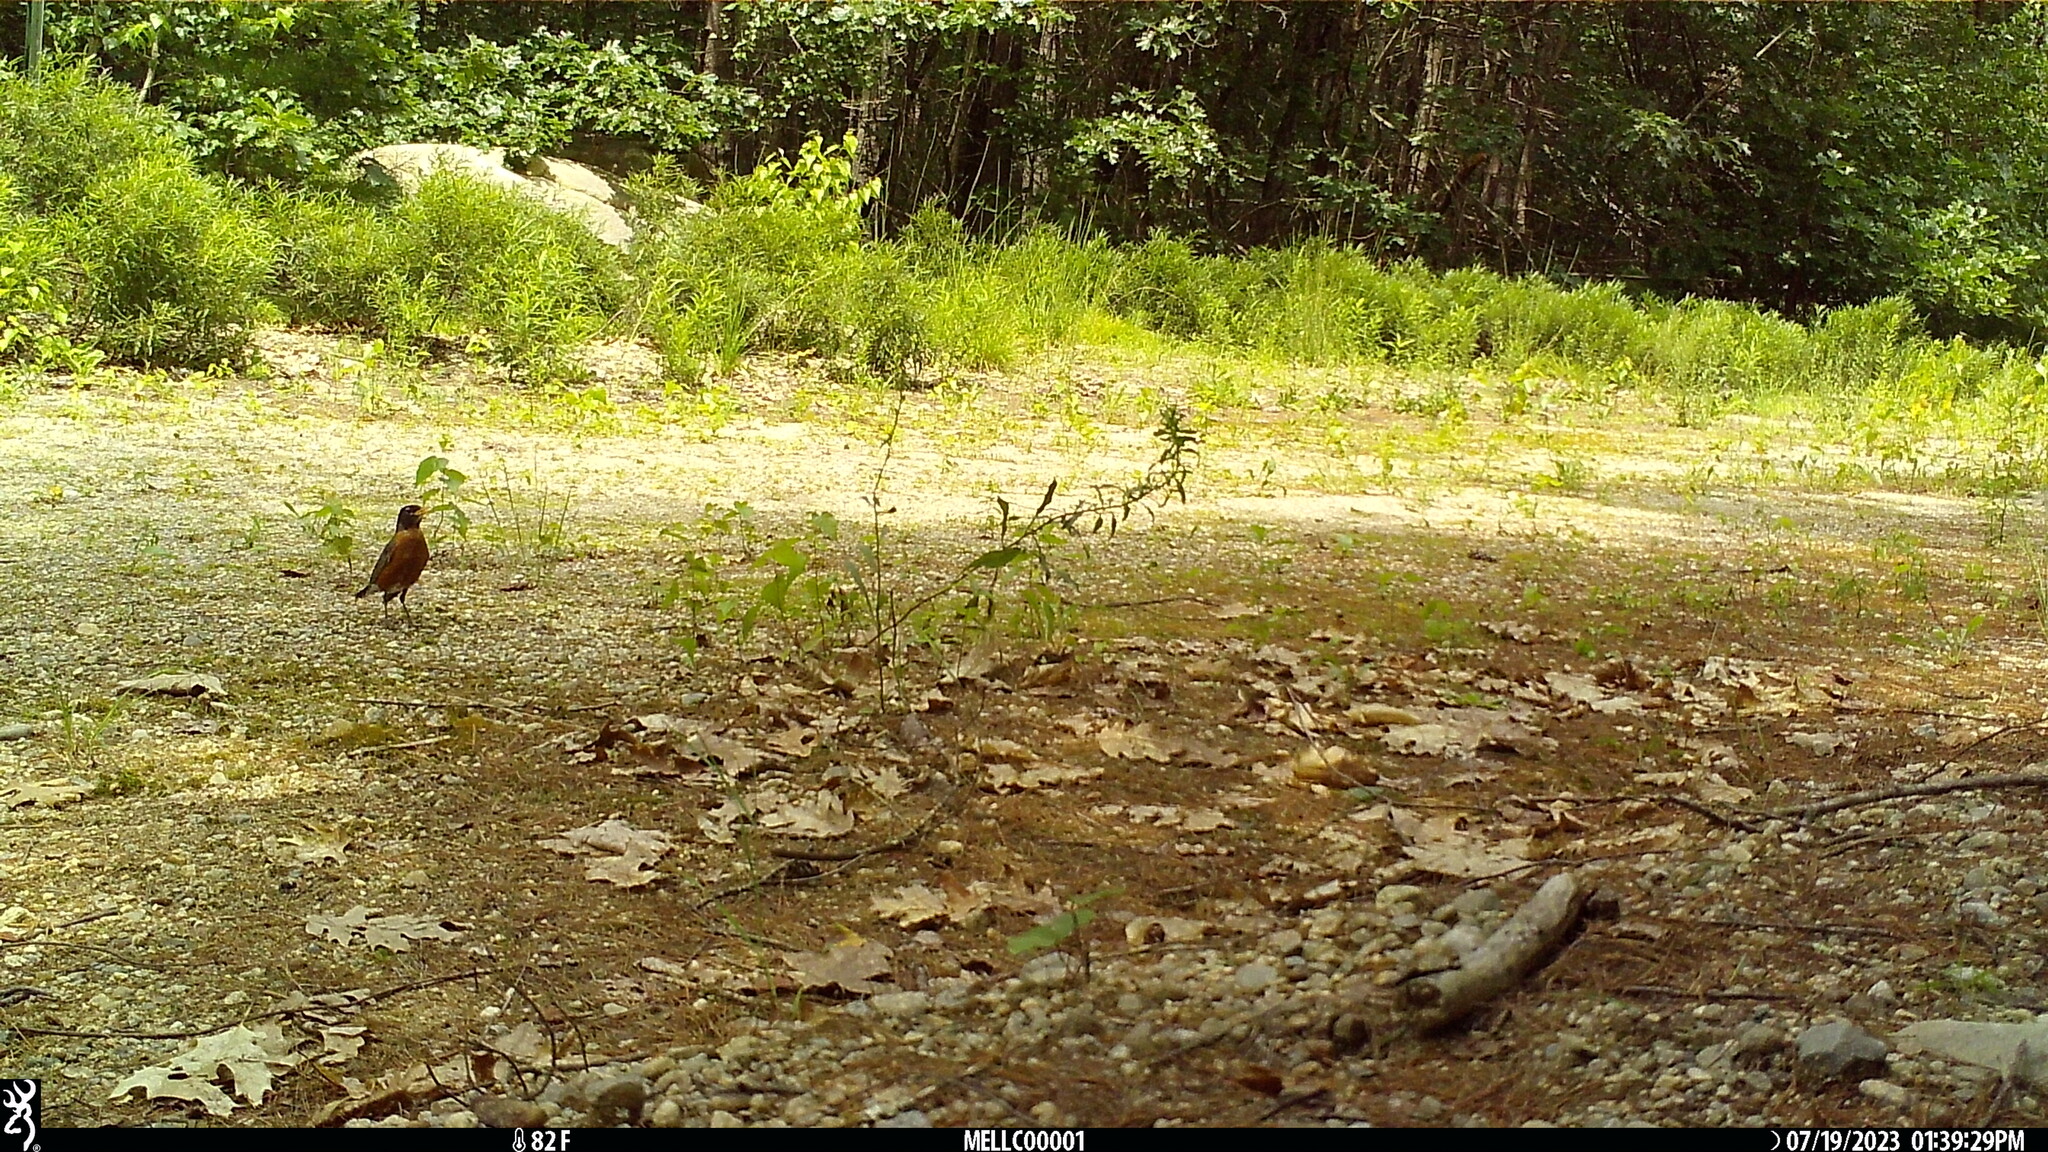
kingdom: Animalia
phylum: Chordata
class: Aves
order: Passeriformes
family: Turdidae
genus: Turdus
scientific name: Turdus migratorius
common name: American robin
